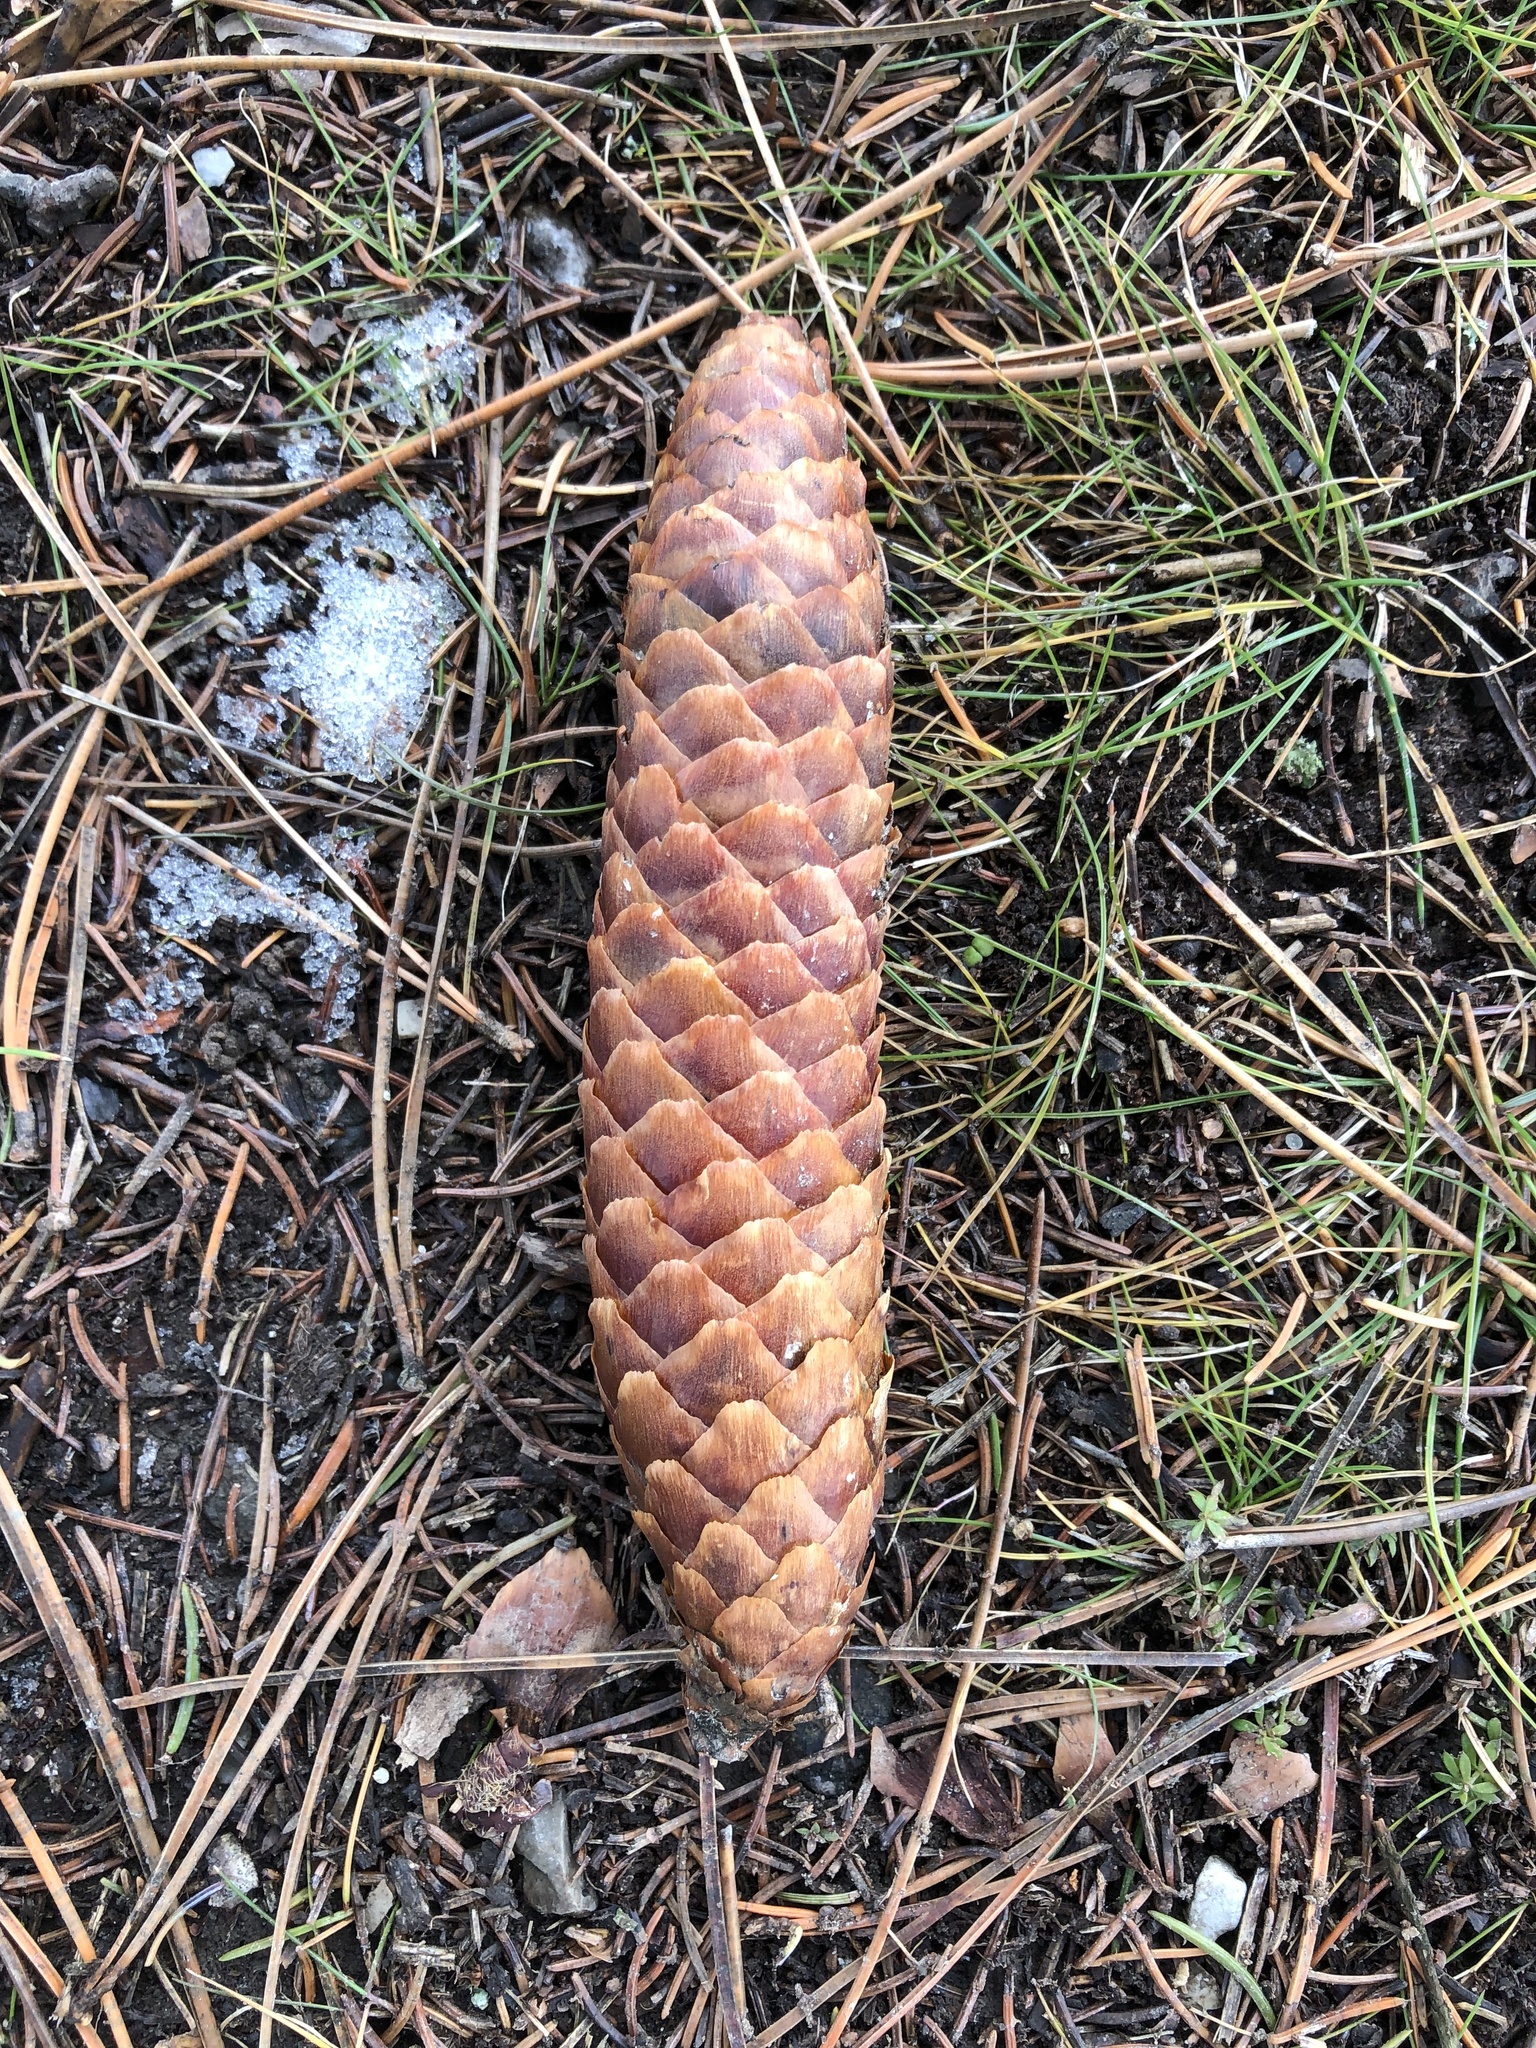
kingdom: Plantae
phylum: Tracheophyta
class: Pinopsida
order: Pinales
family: Pinaceae
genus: Picea
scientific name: Picea abies
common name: Norway spruce
